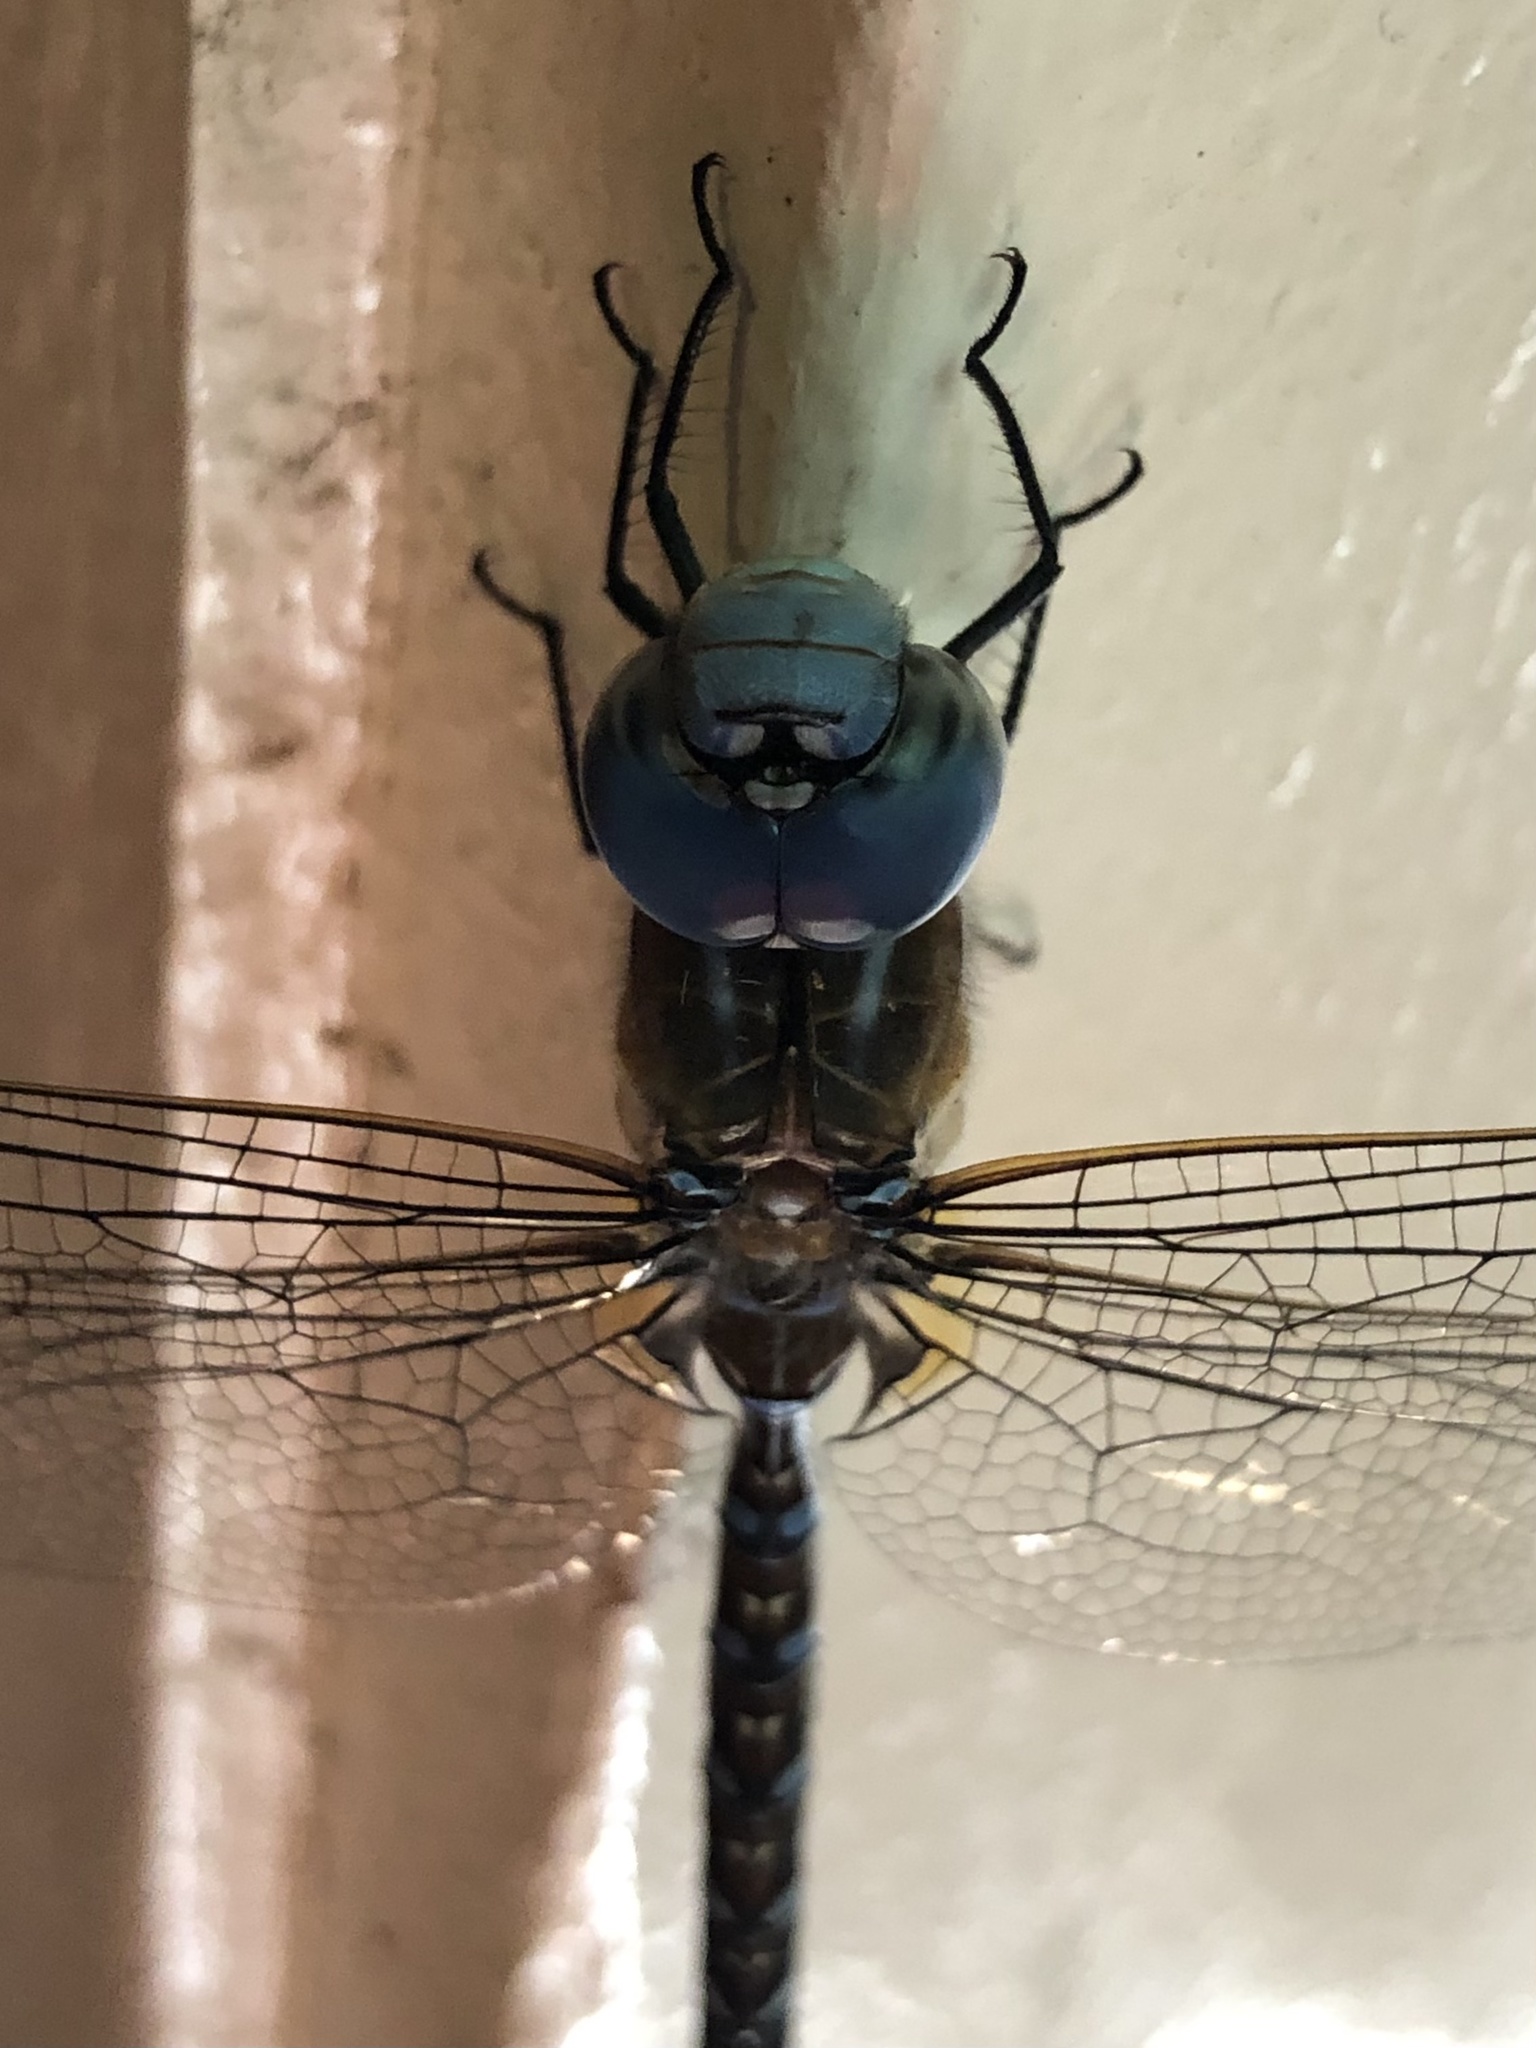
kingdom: Animalia
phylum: Arthropoda
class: Insecta
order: Odonata
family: Aeshnidae
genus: Rhionaeschna
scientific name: Rhionaeschna multicolor
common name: Blue-eyed darner
